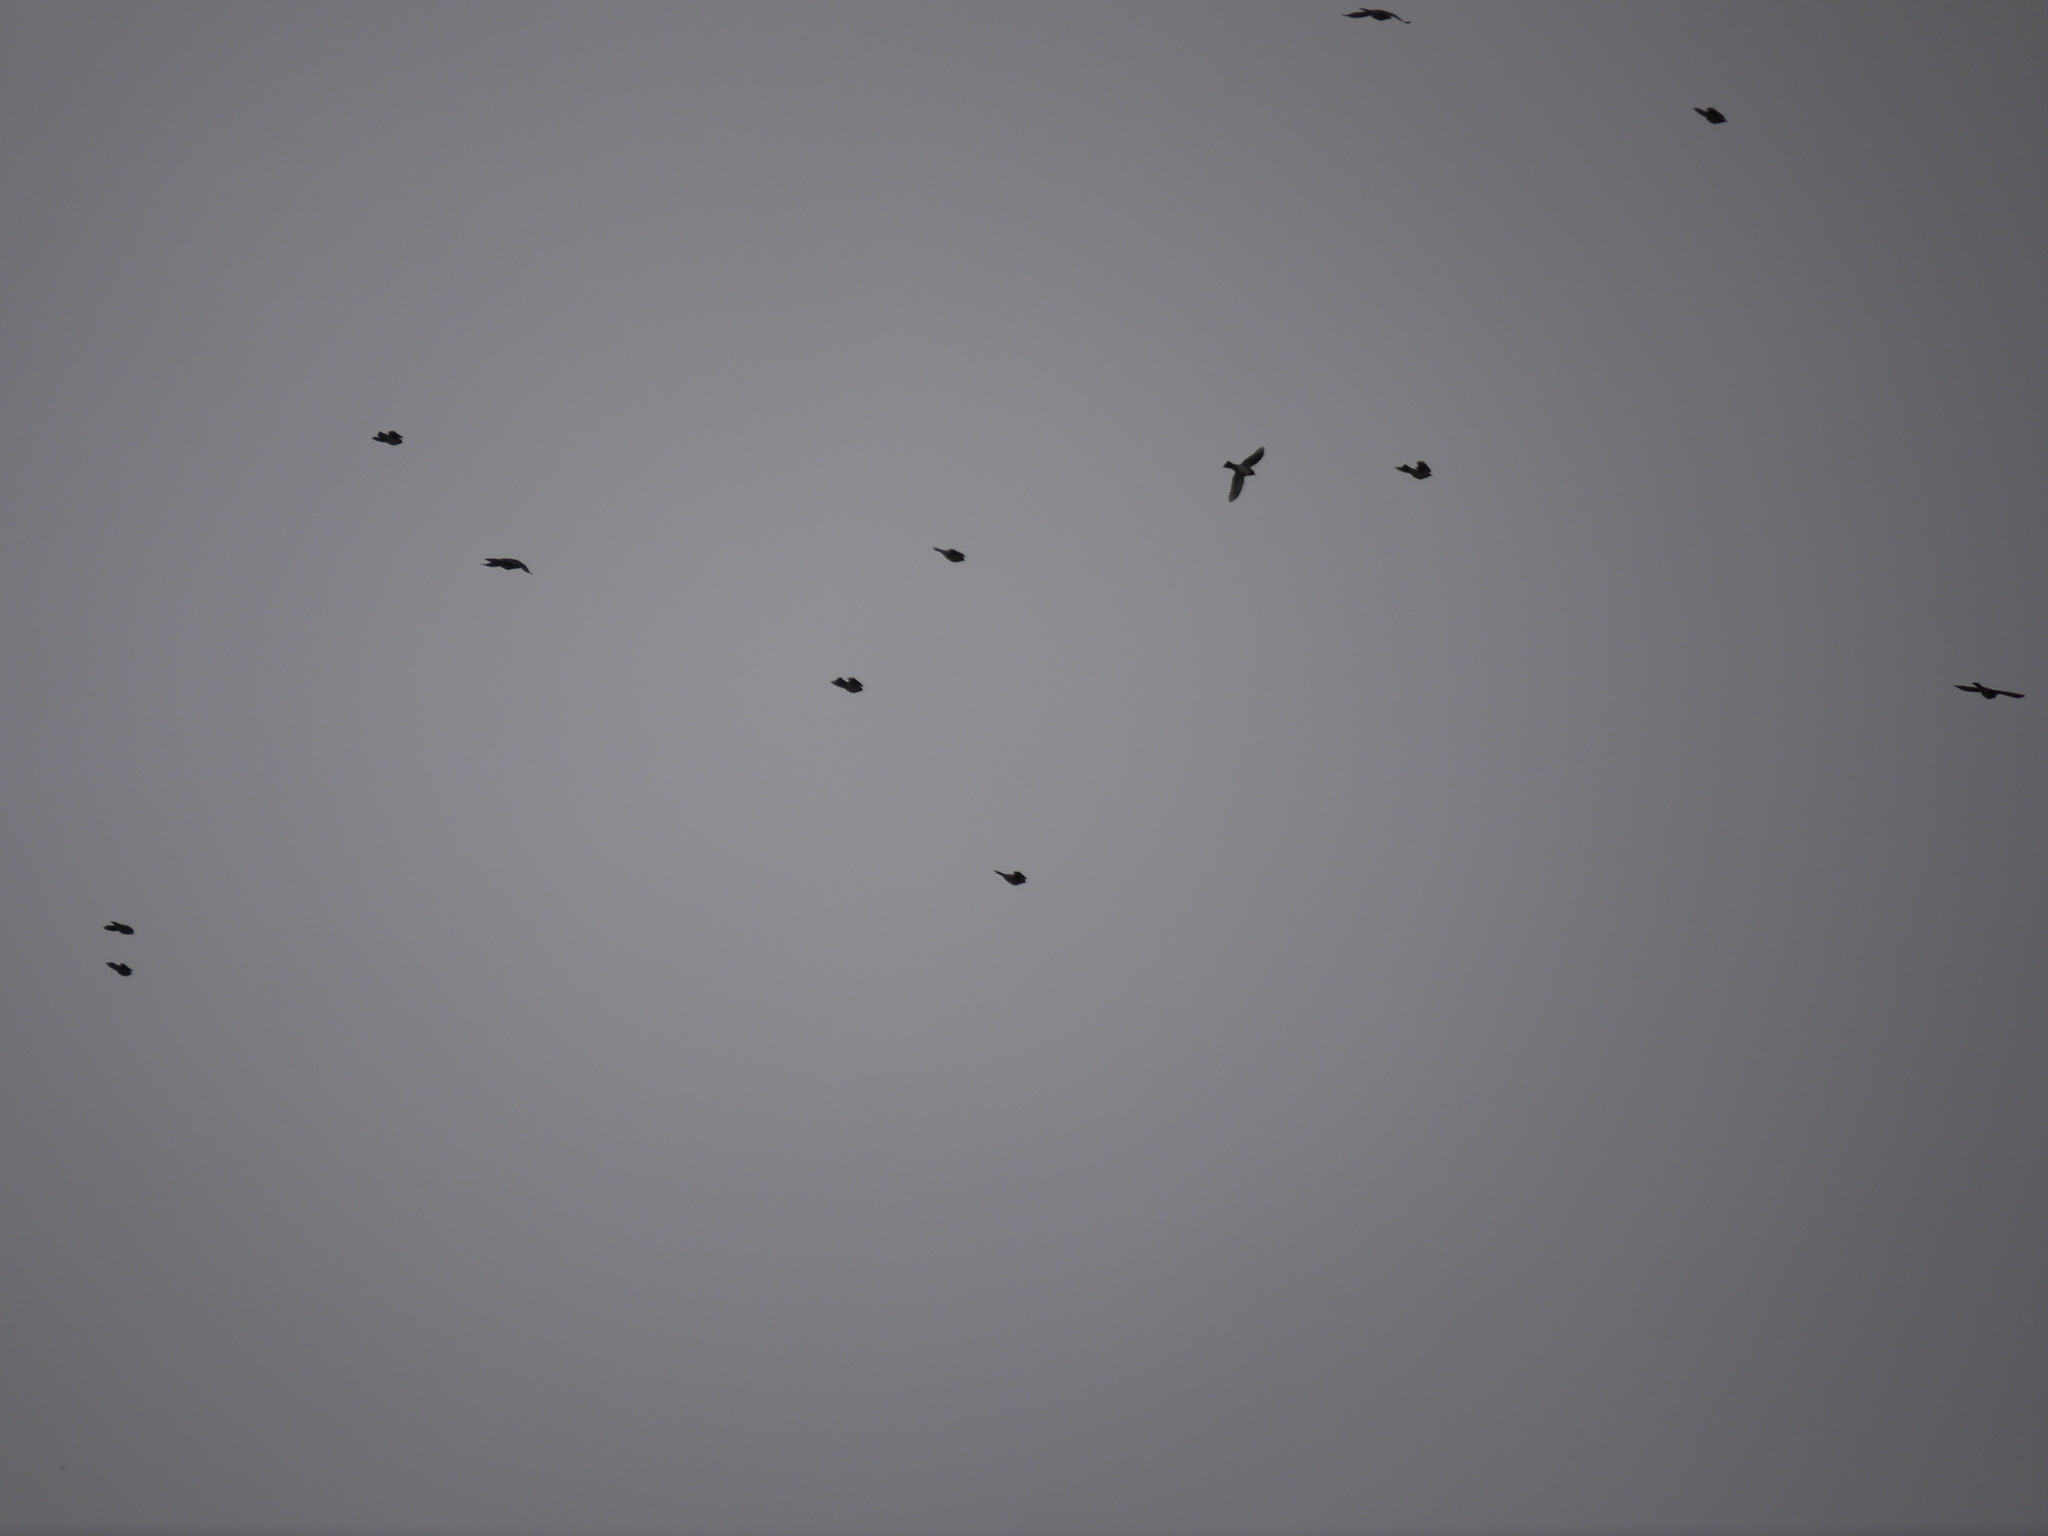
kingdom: Animalia
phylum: Chordata
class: Aves
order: Passeriformes
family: Turdidae
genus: Turdus
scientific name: Turdus pilaris
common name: Fieldfare
